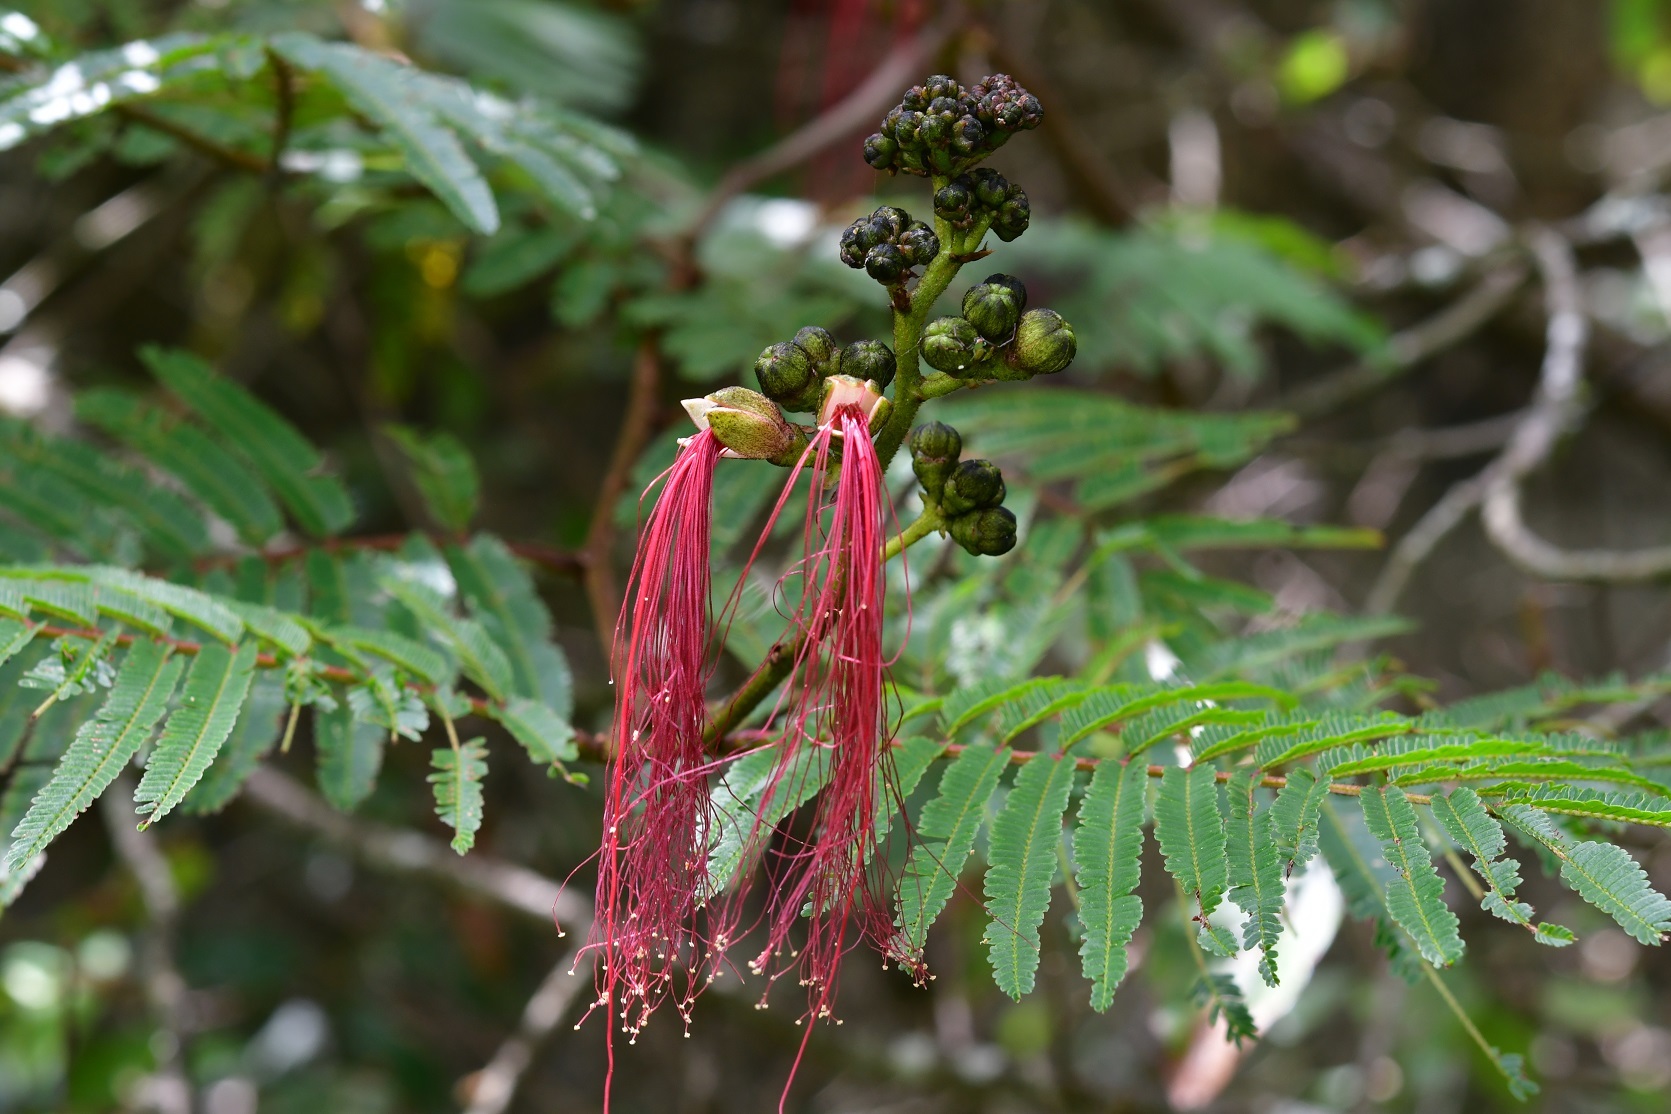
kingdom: Plantae
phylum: Tracheophyta
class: Magnoliopsida
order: Fabales
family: Fabaceae
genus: Calliandra
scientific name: Calliandra houstoniana
